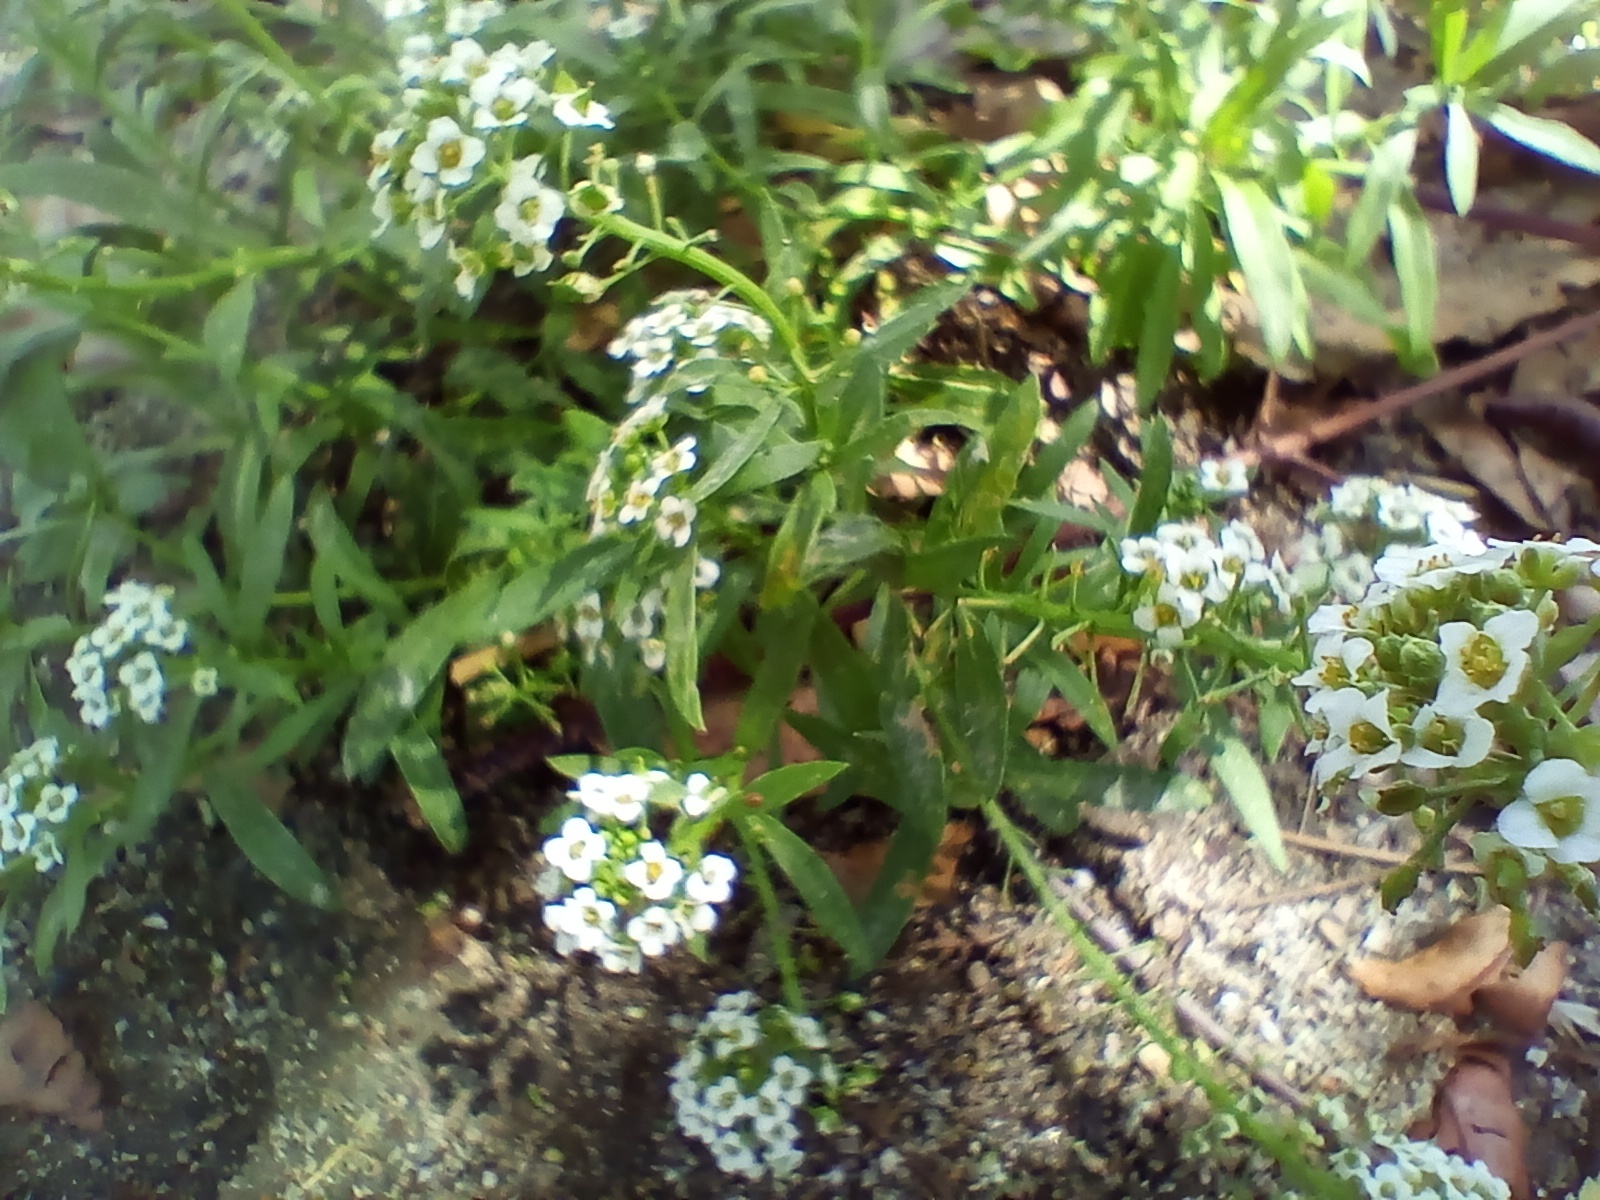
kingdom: Plantae
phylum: Tracheophyta
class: Magnoliopsida
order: Brassicales
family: Brassicaceae
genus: Lobularia
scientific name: Lobularia maritima
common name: Sweet alison
